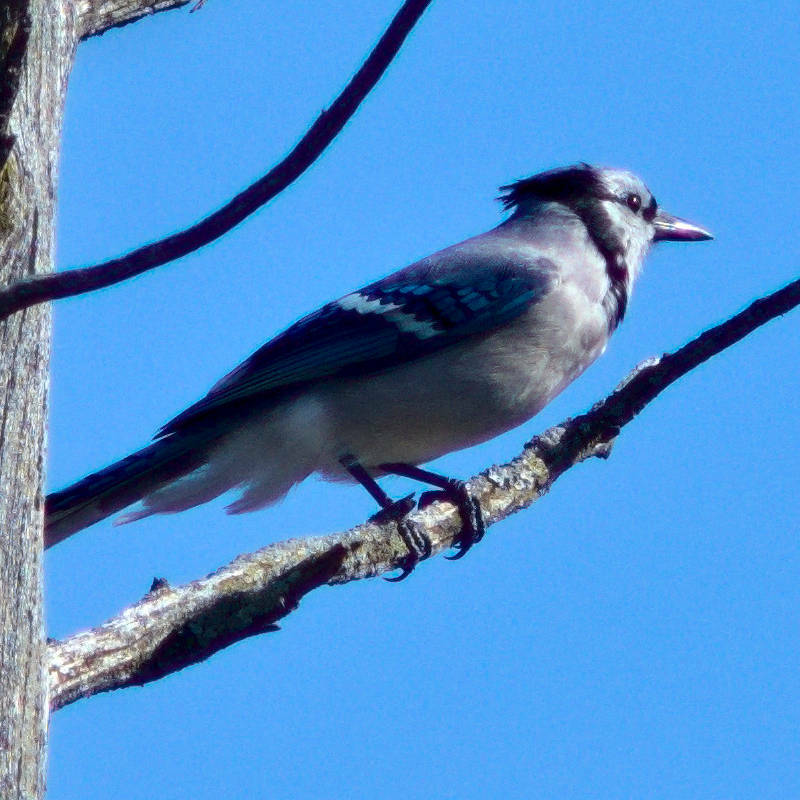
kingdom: Animalia
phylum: Chordata
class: Aves
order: Passeriformes
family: Corvidae
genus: Cyanocitta
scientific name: Cyanocitta cristata
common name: Blue jay
